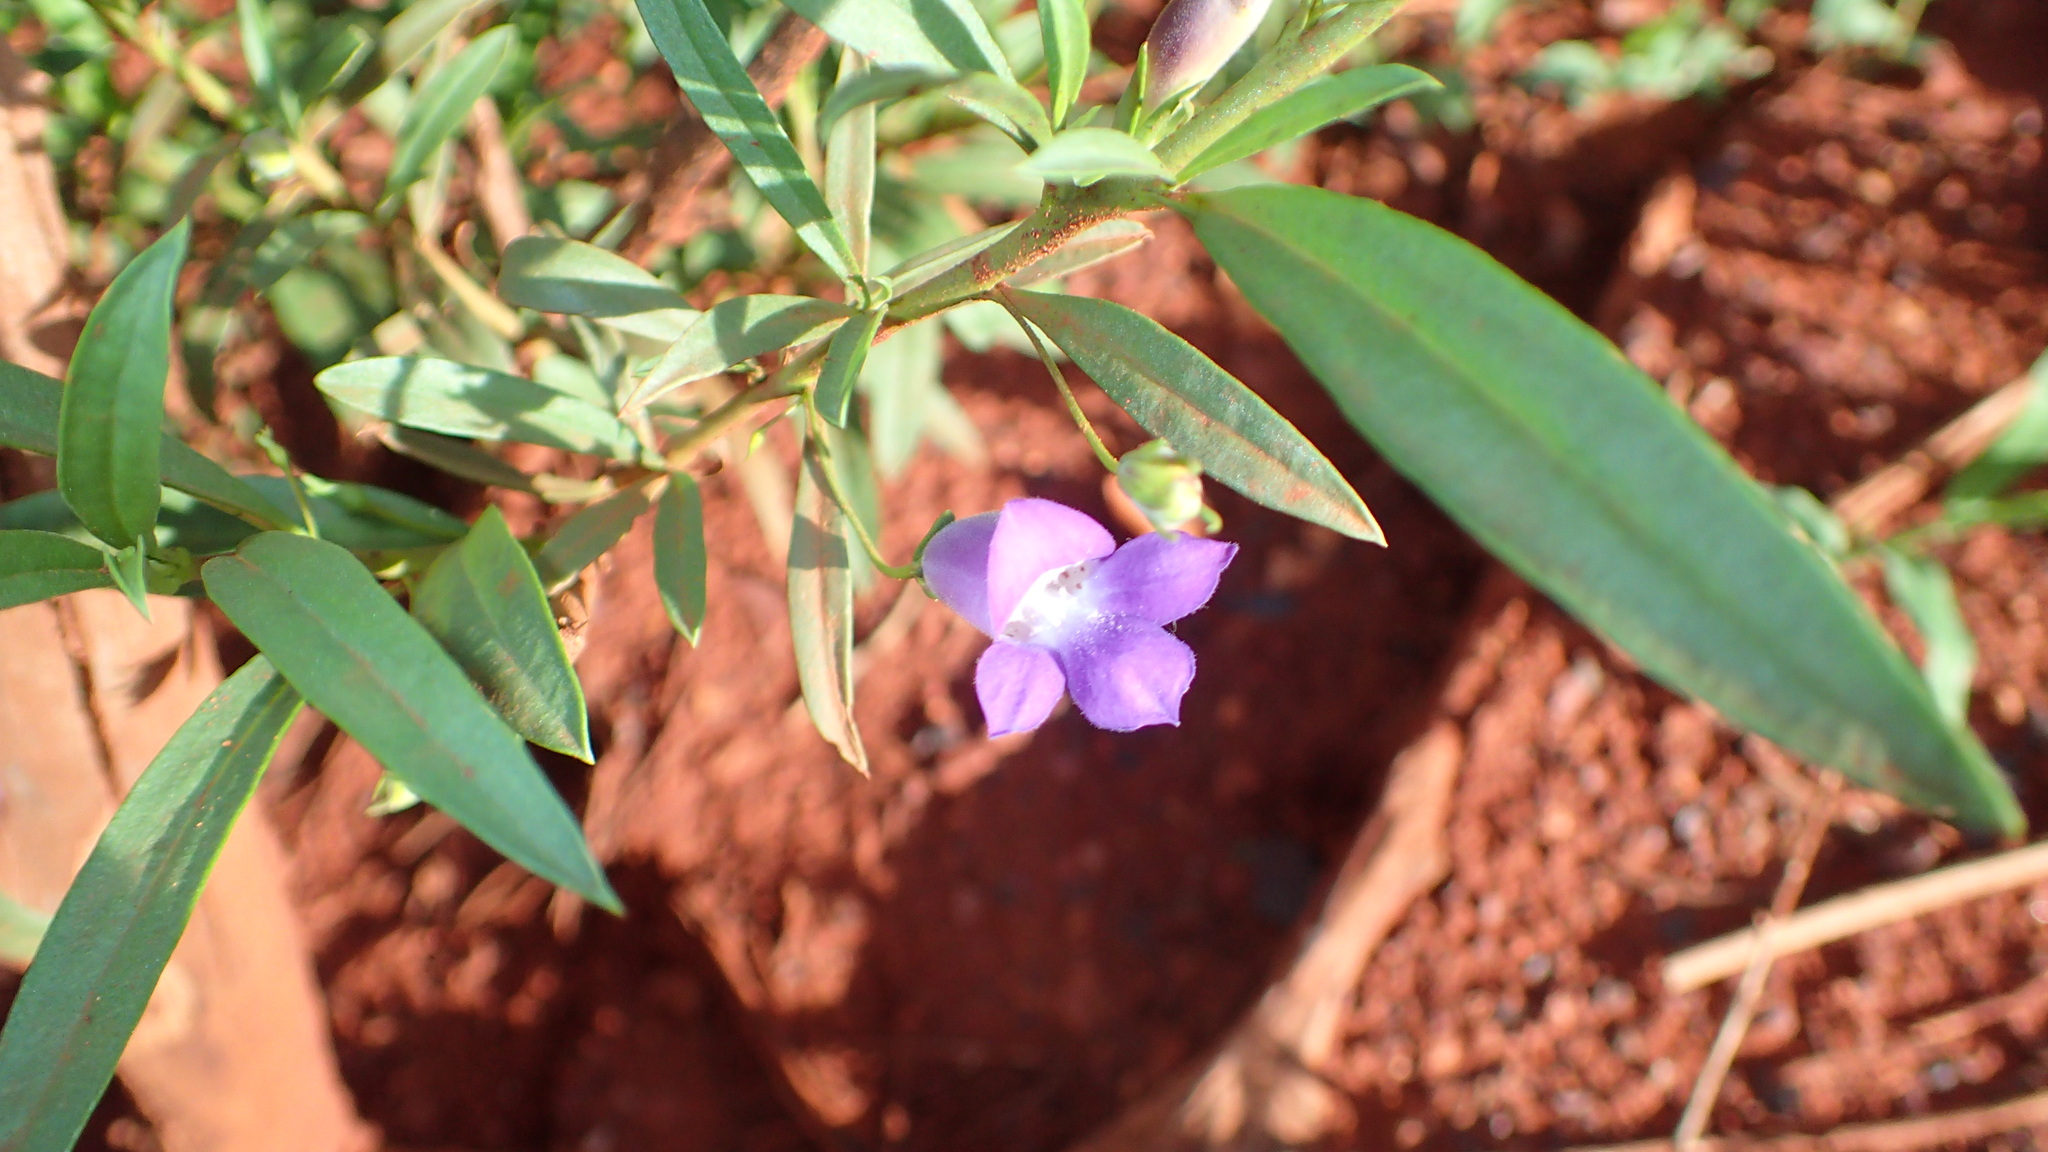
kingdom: Plantae
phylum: Tracheophyta
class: Magnoliopsida
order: Lamiales
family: Scrophulariaceae
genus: Eremophila
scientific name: Eremophila lanceolata
